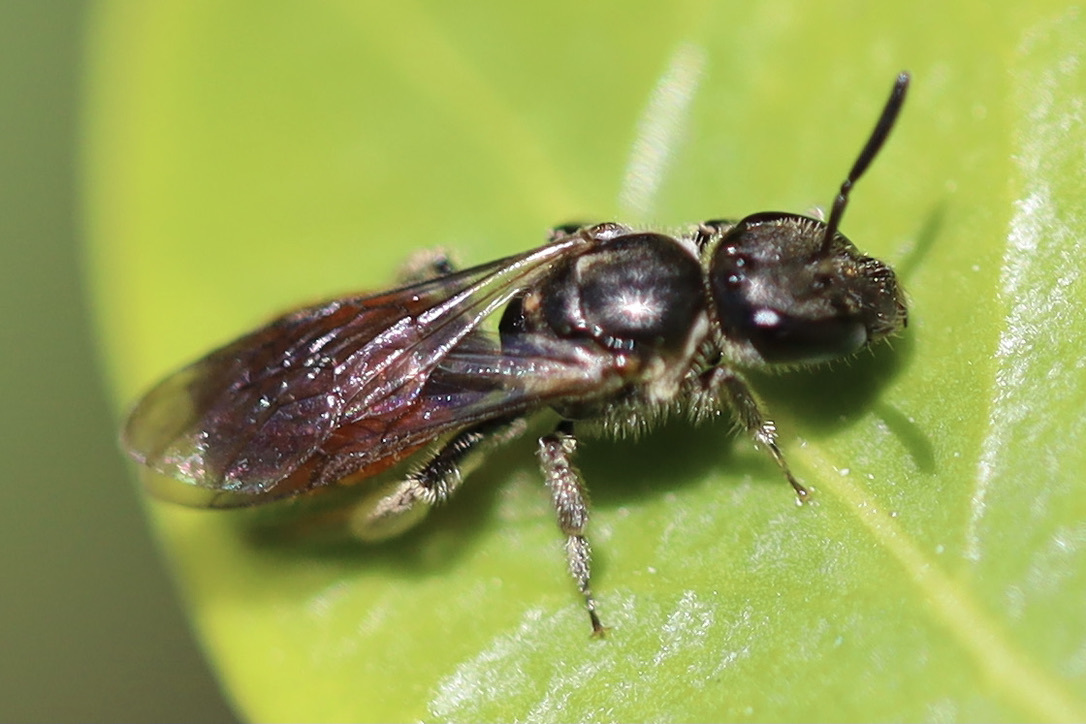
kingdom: Animalia
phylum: Arthropoda
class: Insecta
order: Hymenoptera
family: Halictidae
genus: Lasioglossum
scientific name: Lasioglossum ovaliceps
